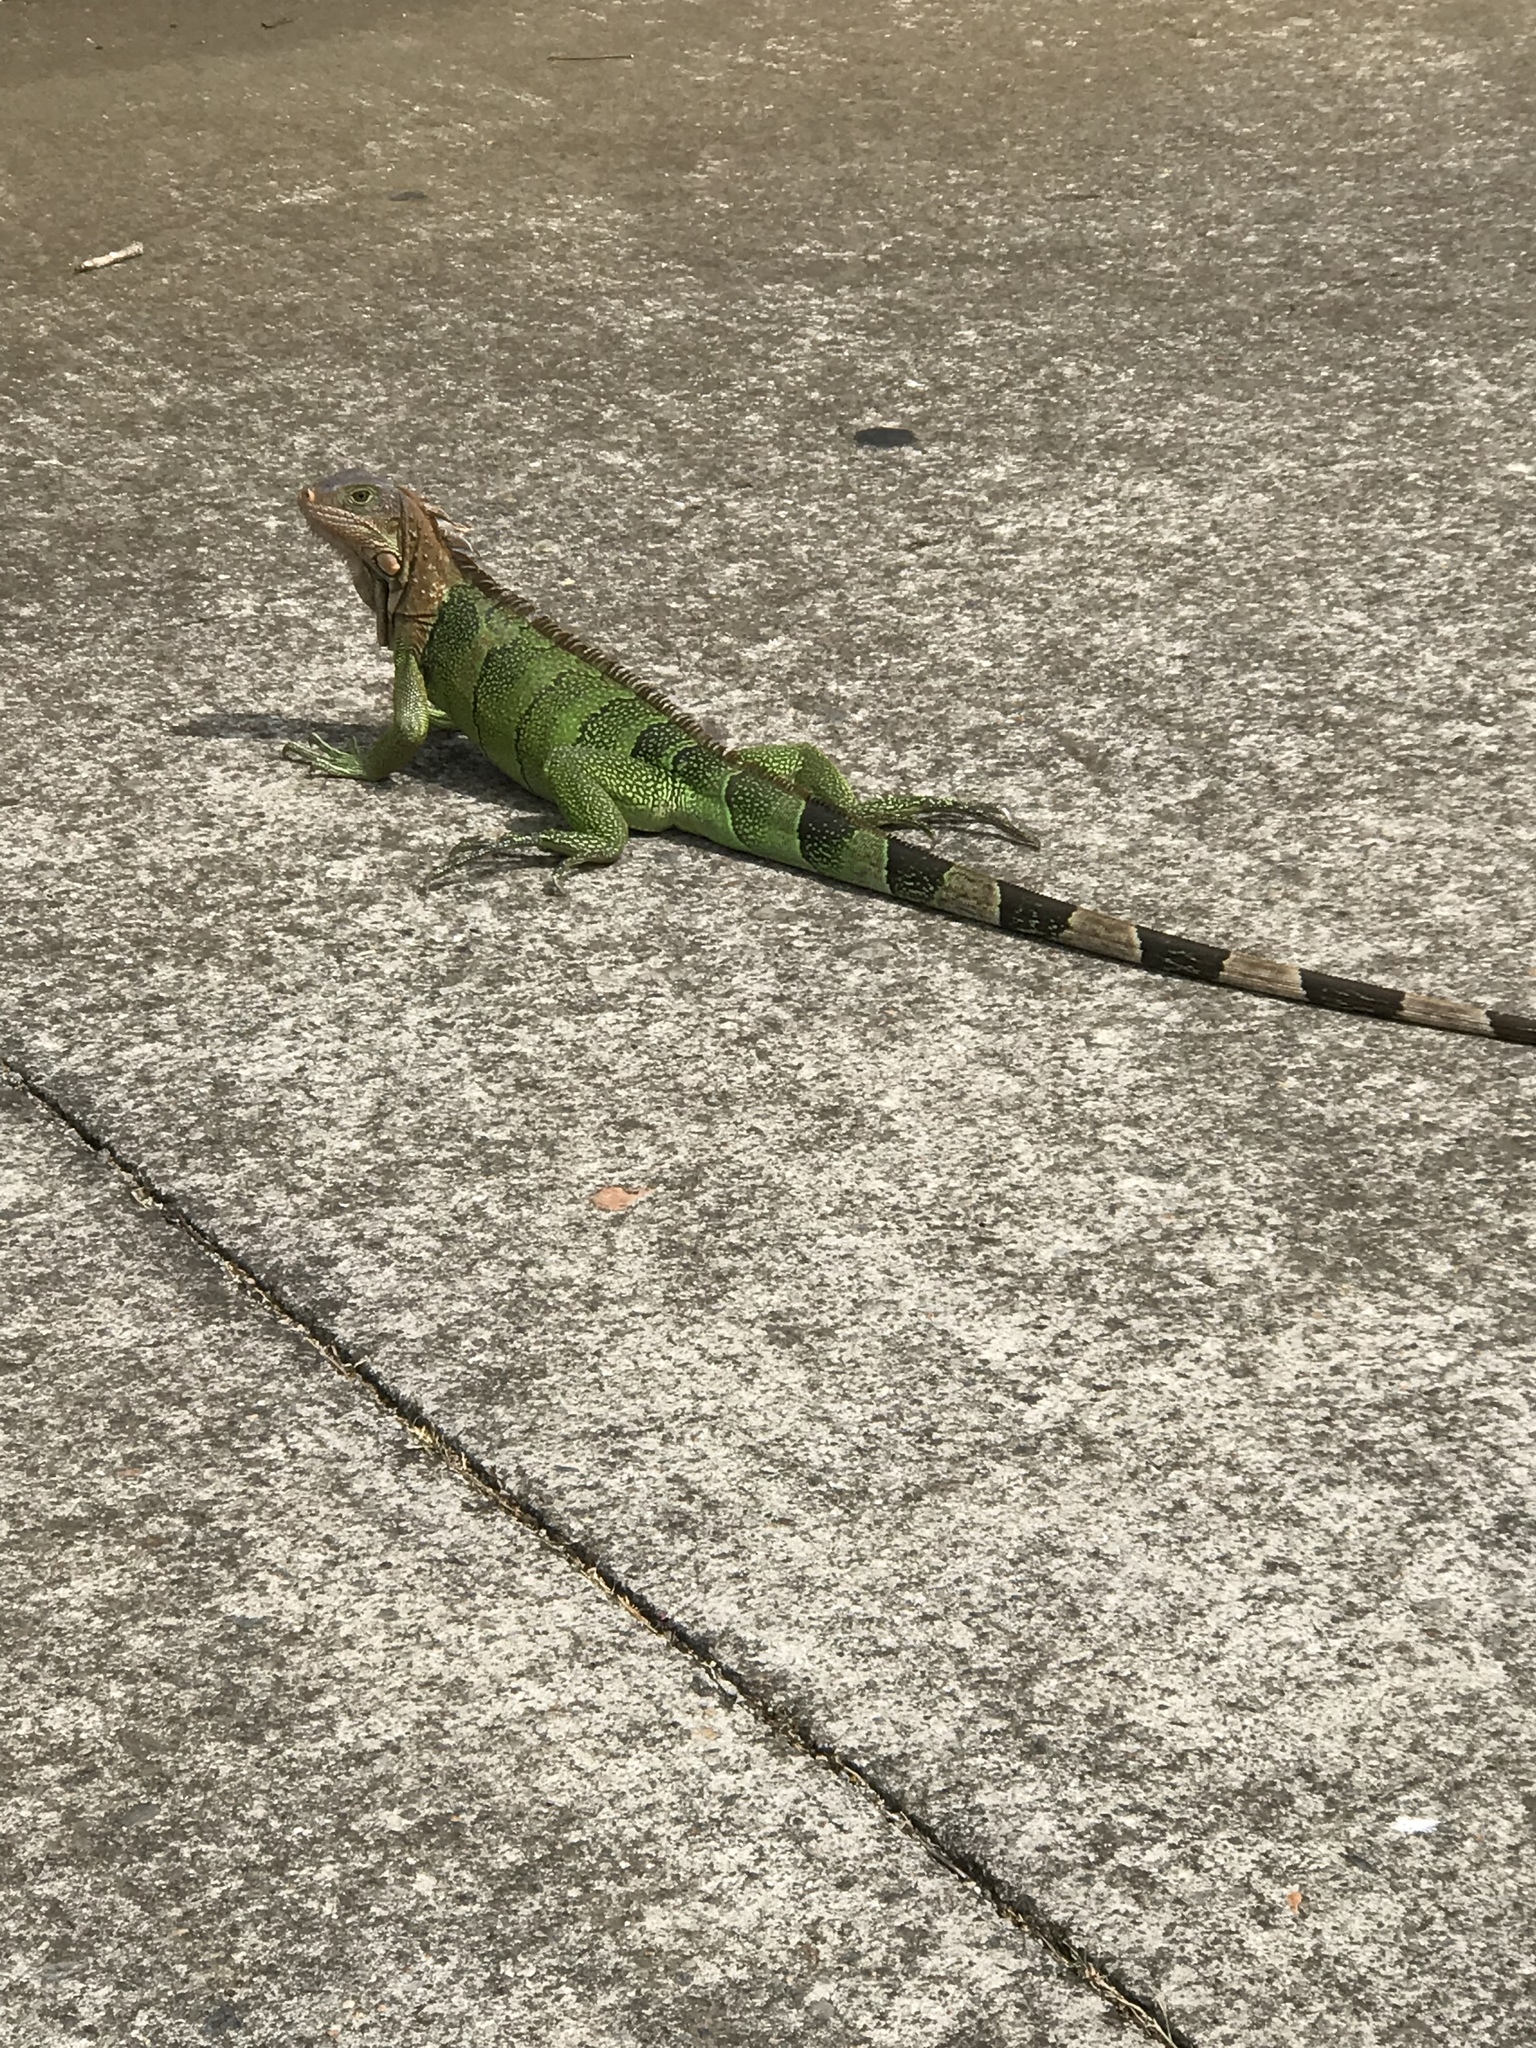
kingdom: Animalia
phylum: Chordata
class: Squamata
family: Iguanidae
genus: Iguana
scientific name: Iguana iguana
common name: Green iguana
